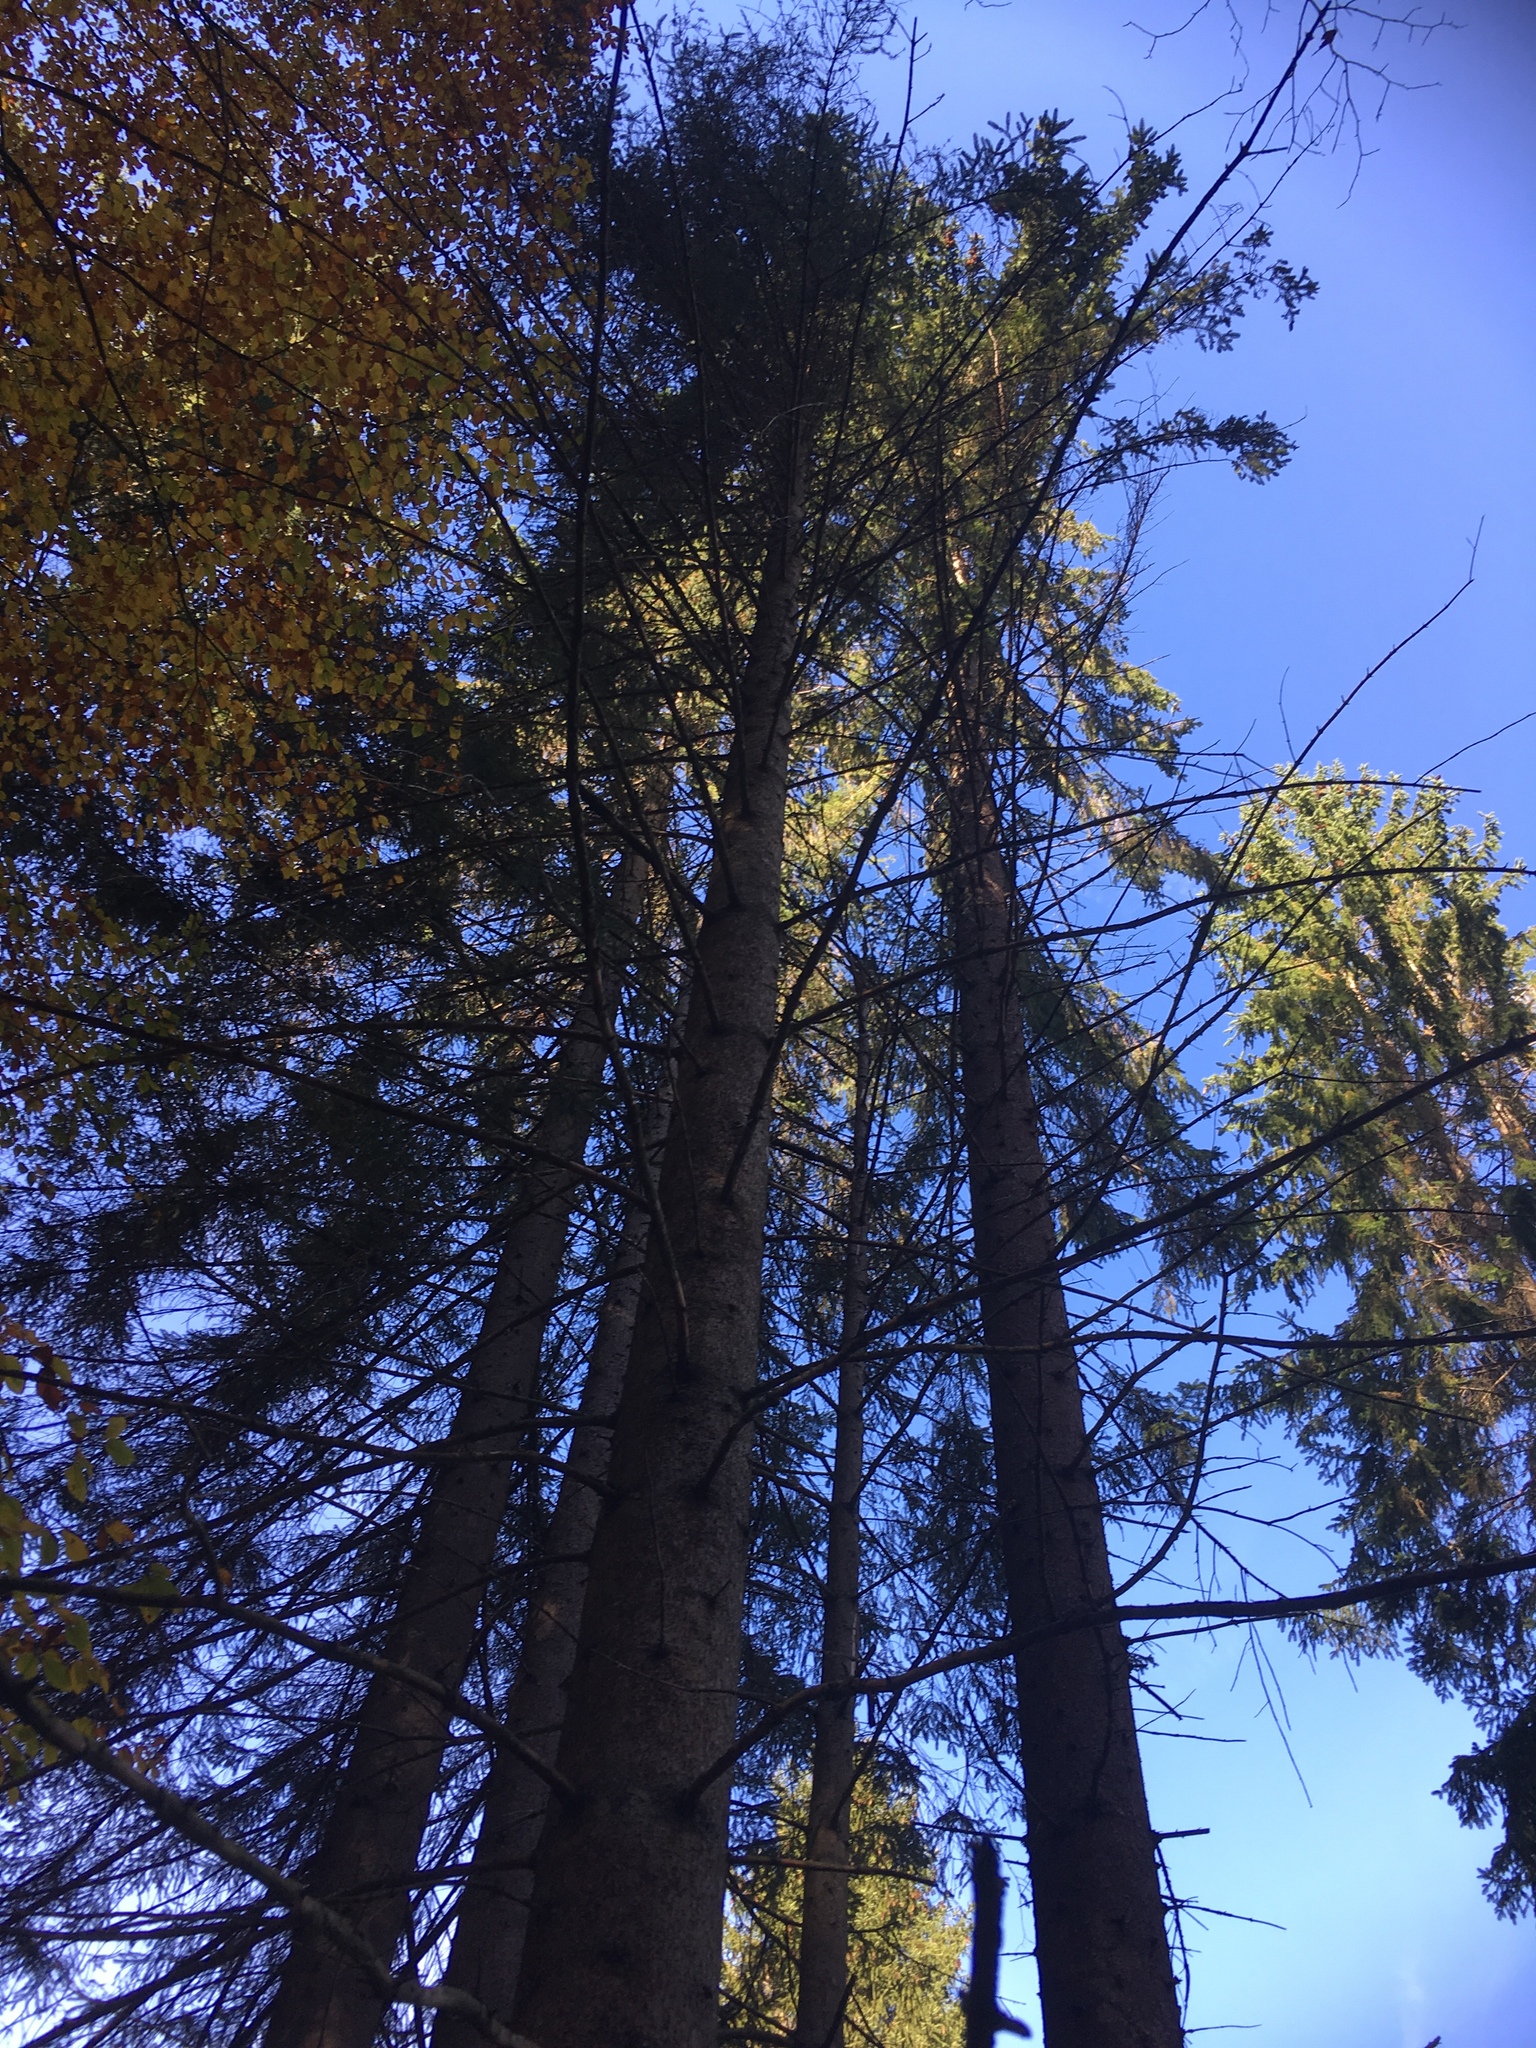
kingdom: Plantae
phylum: Tracheophyta
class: Pinopsida
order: Pinales
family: Pinaceae
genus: Picea
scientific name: Picea abies
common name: Norway spruce
